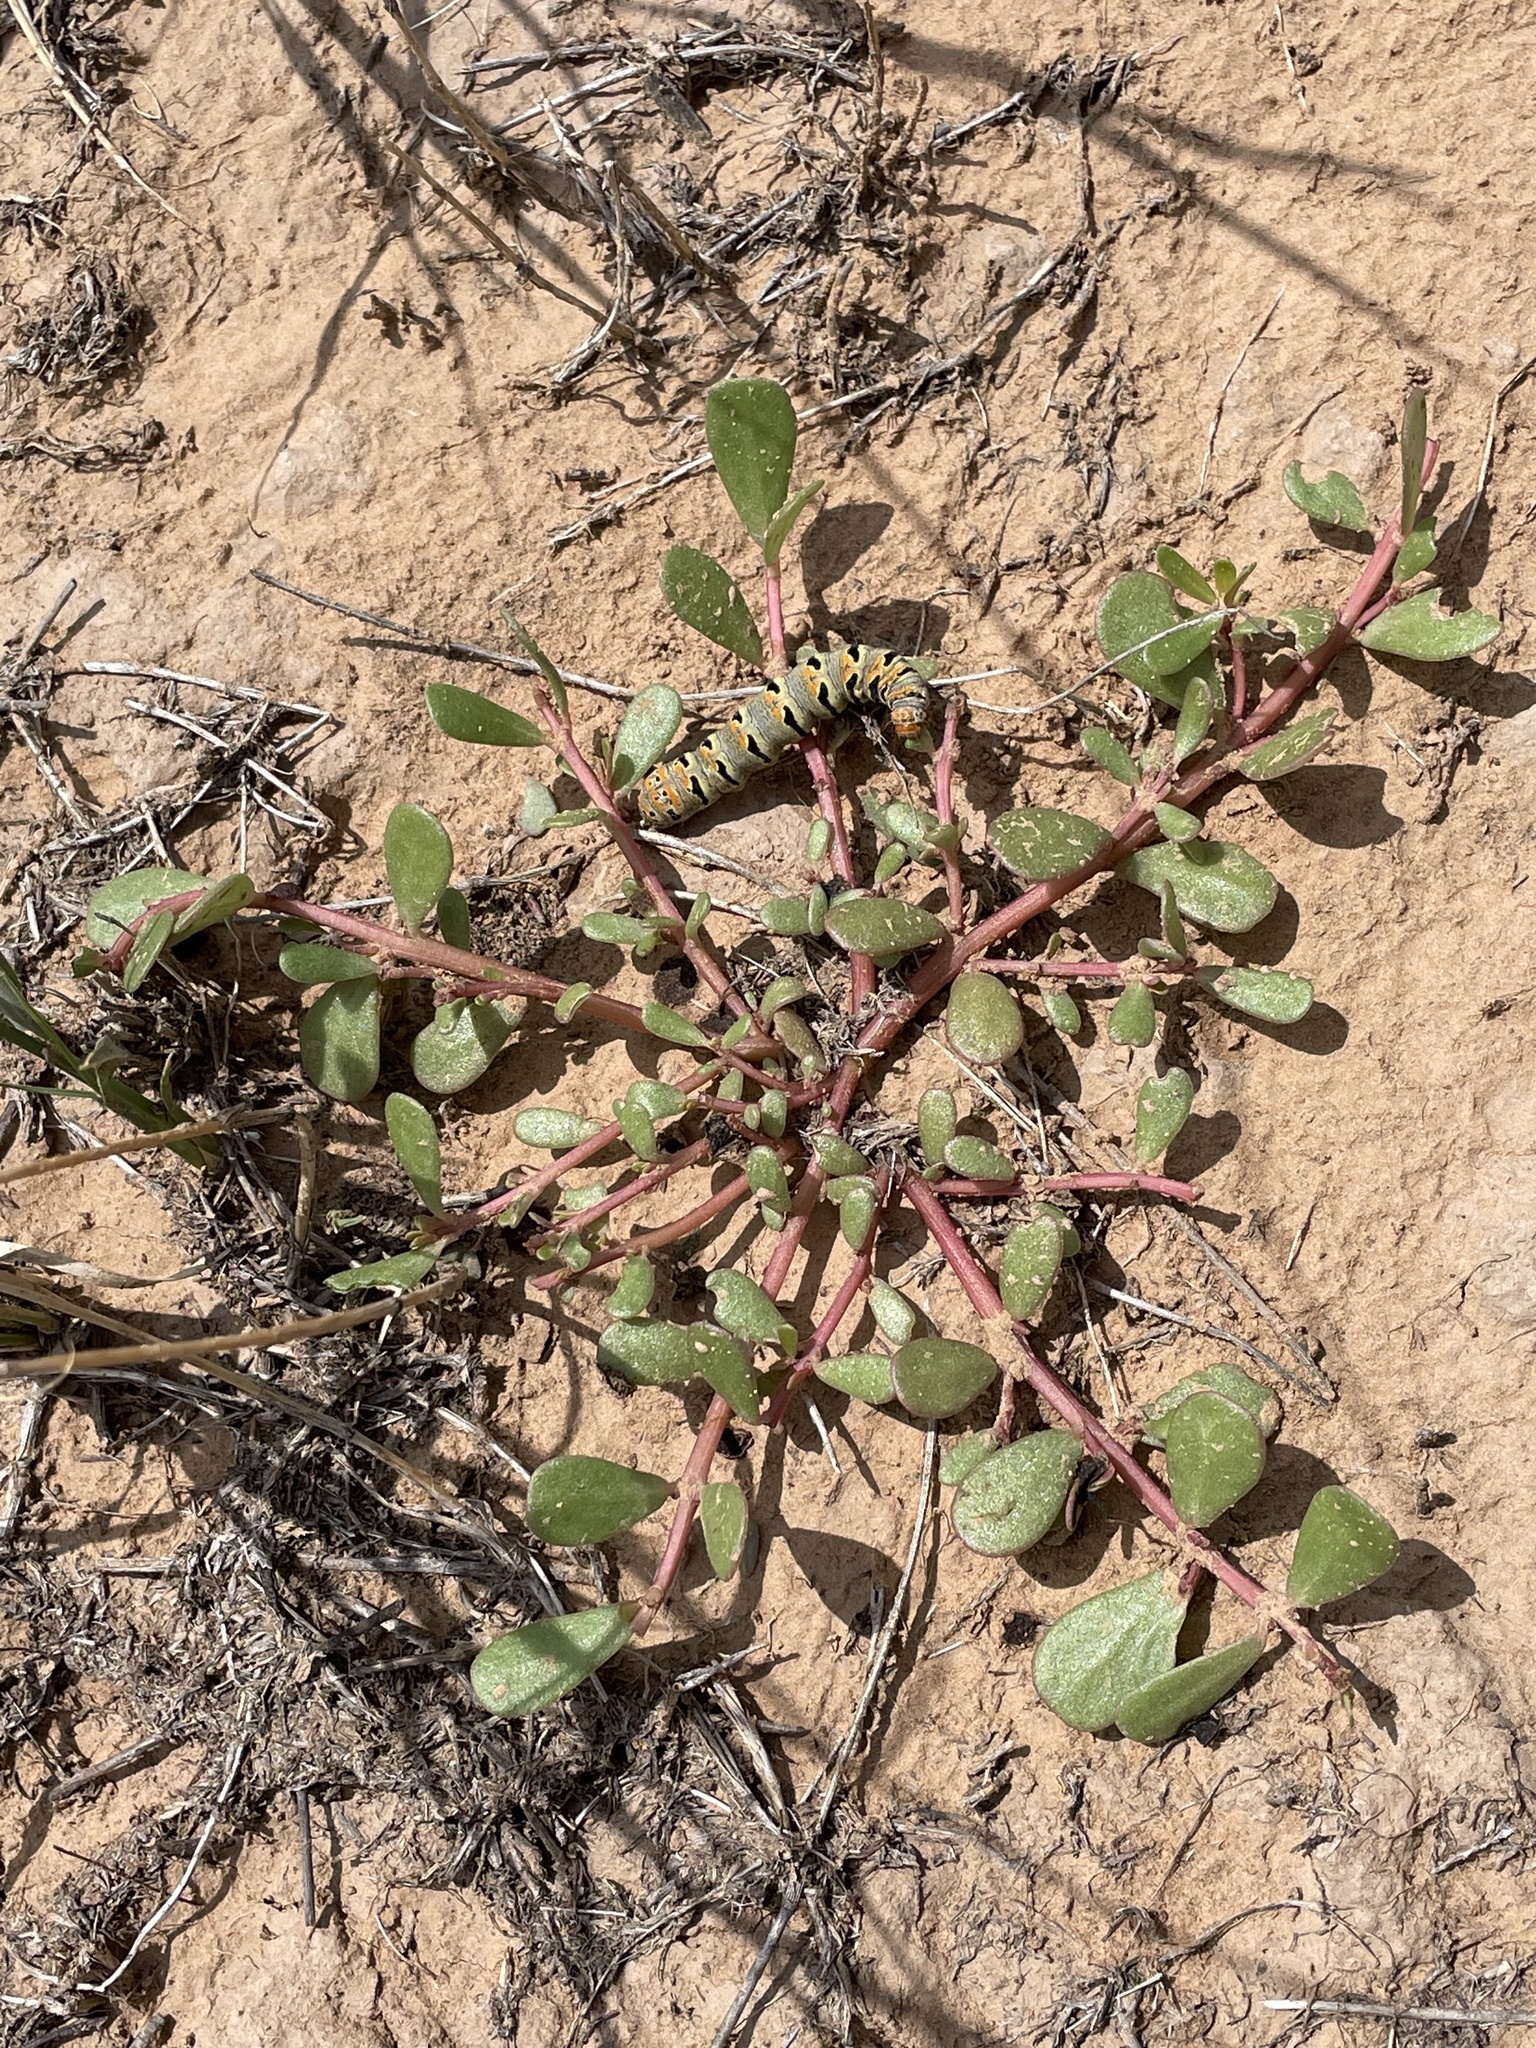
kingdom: Plantae
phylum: Tracheophyta
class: Magnoliopsida
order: Caryophyllales
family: Portulacaceae
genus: Portulaca
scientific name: Portulaca oleracea
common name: Common purslane
